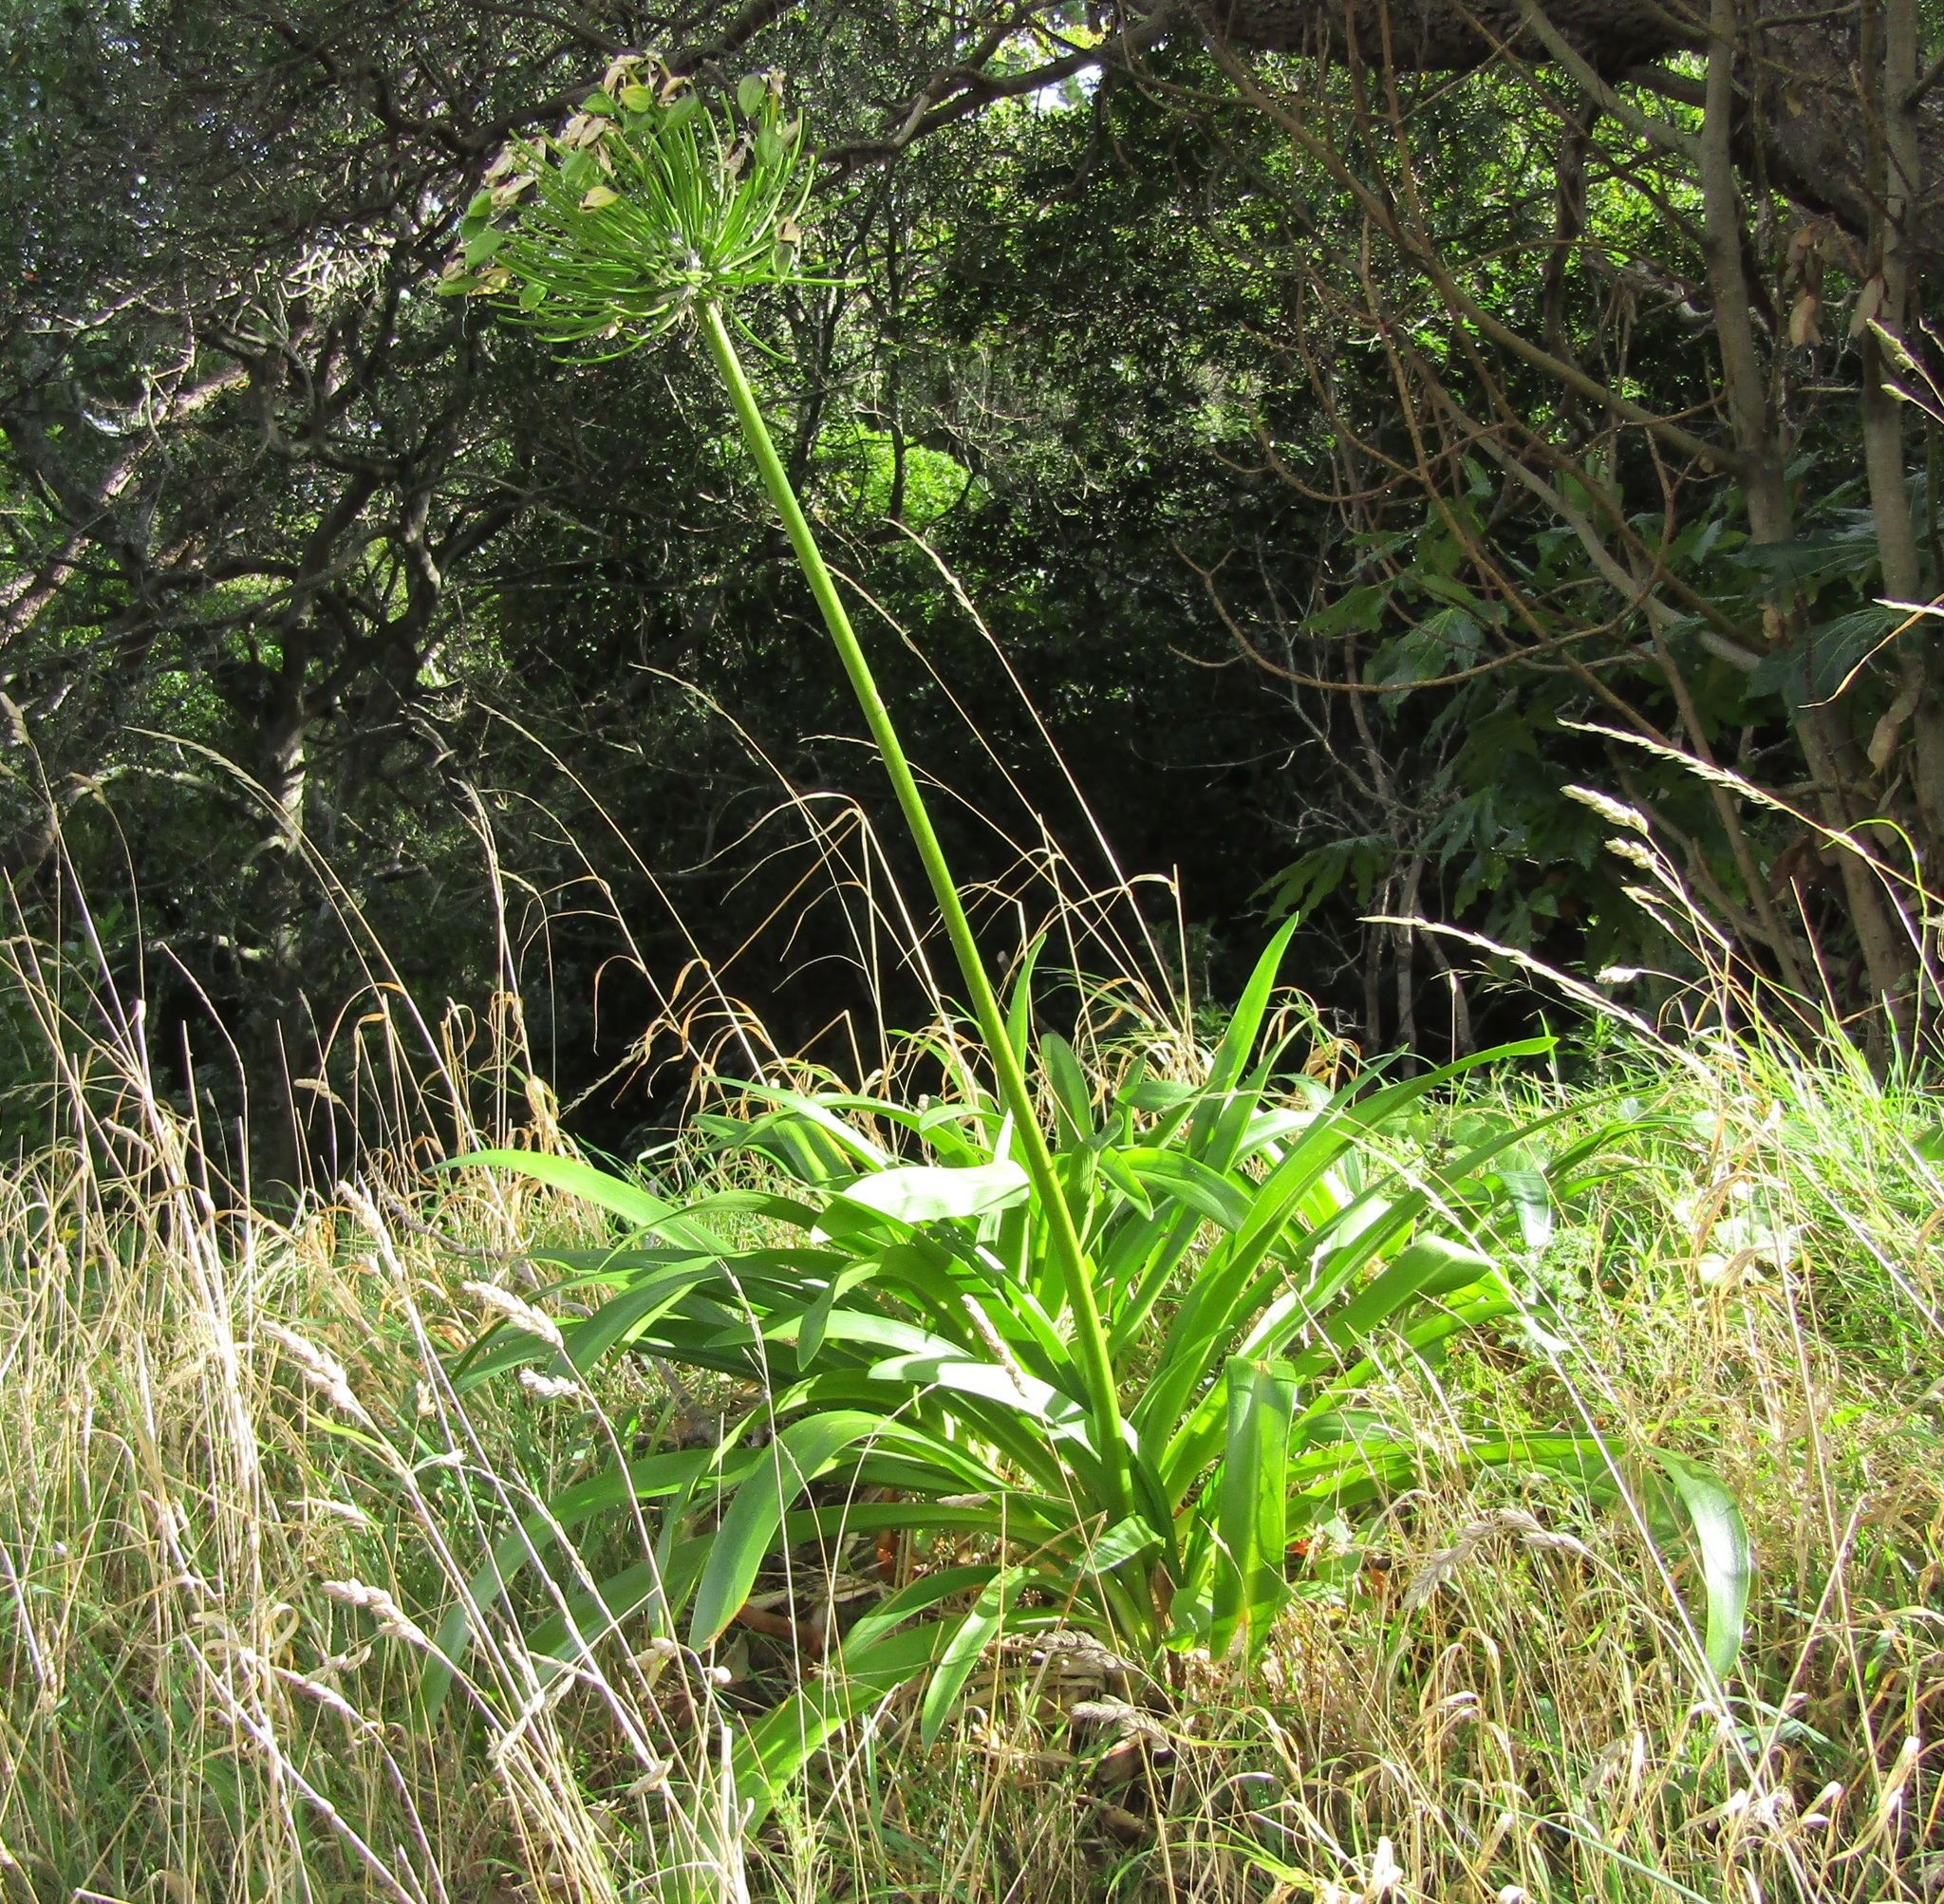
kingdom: Plantae
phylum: Tracheophyta
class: Liliopsida
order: Asparagales
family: Amaryllidaceae
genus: Agapanthus
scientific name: Agapanthus praecox
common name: African-lily
